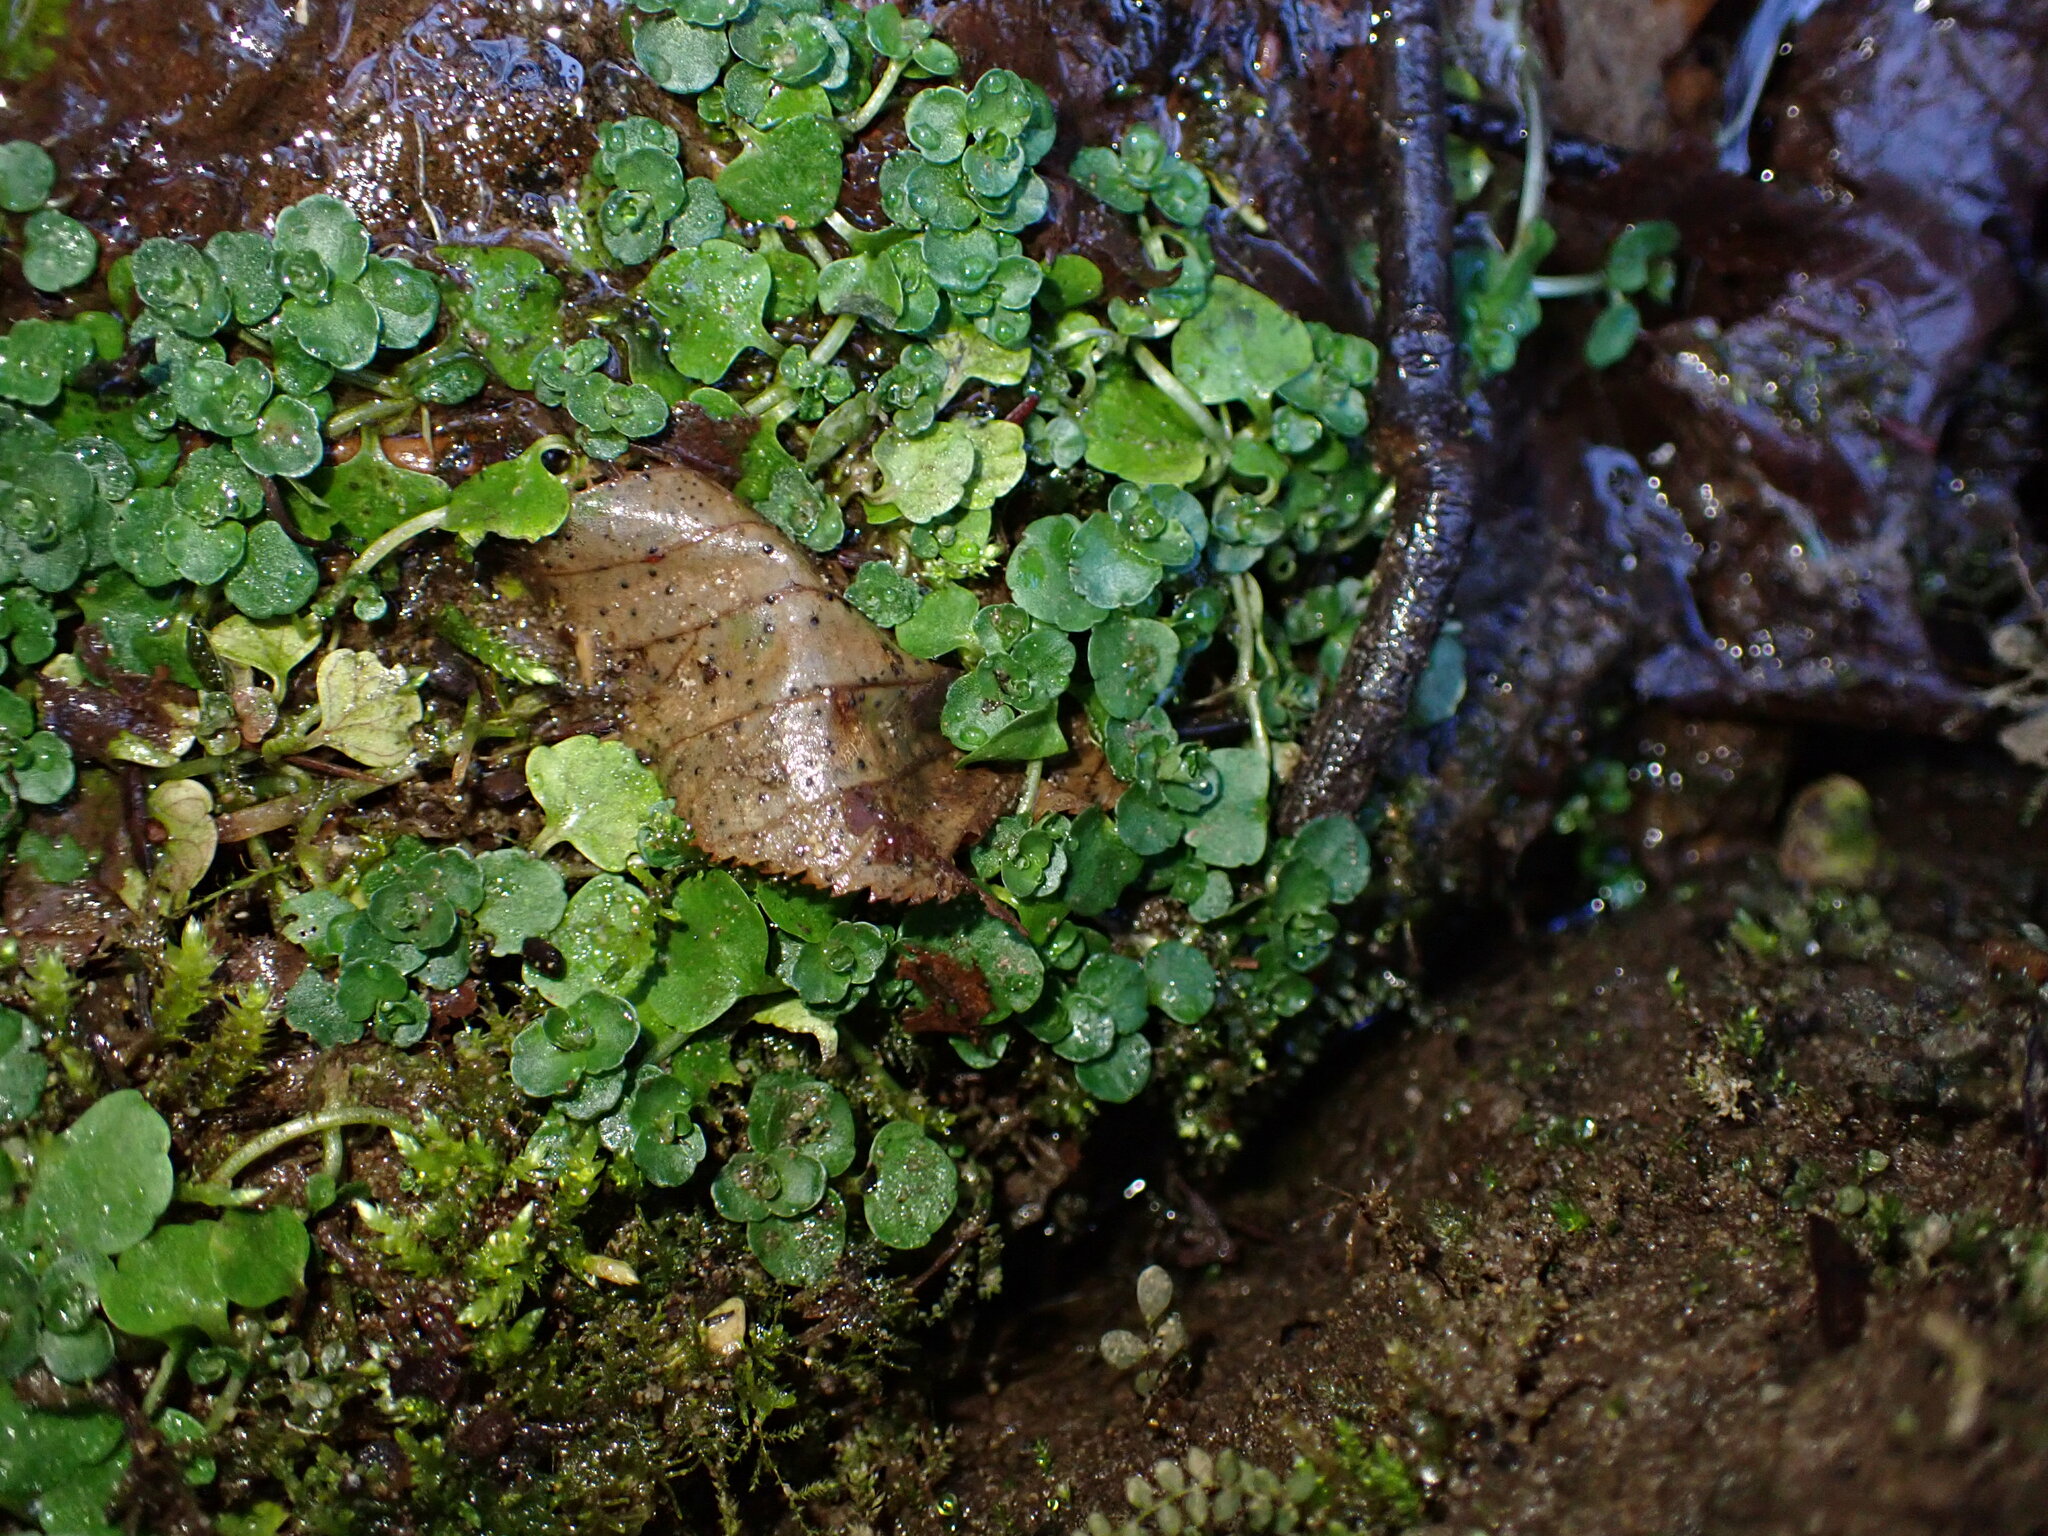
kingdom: Plantae
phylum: Tracheophyta
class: Magnoliopsida
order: Saxifragales
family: Saxifragaceae
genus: Chrysosplenium
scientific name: Chrysosplenium americanum
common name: American golden-saxifrage
